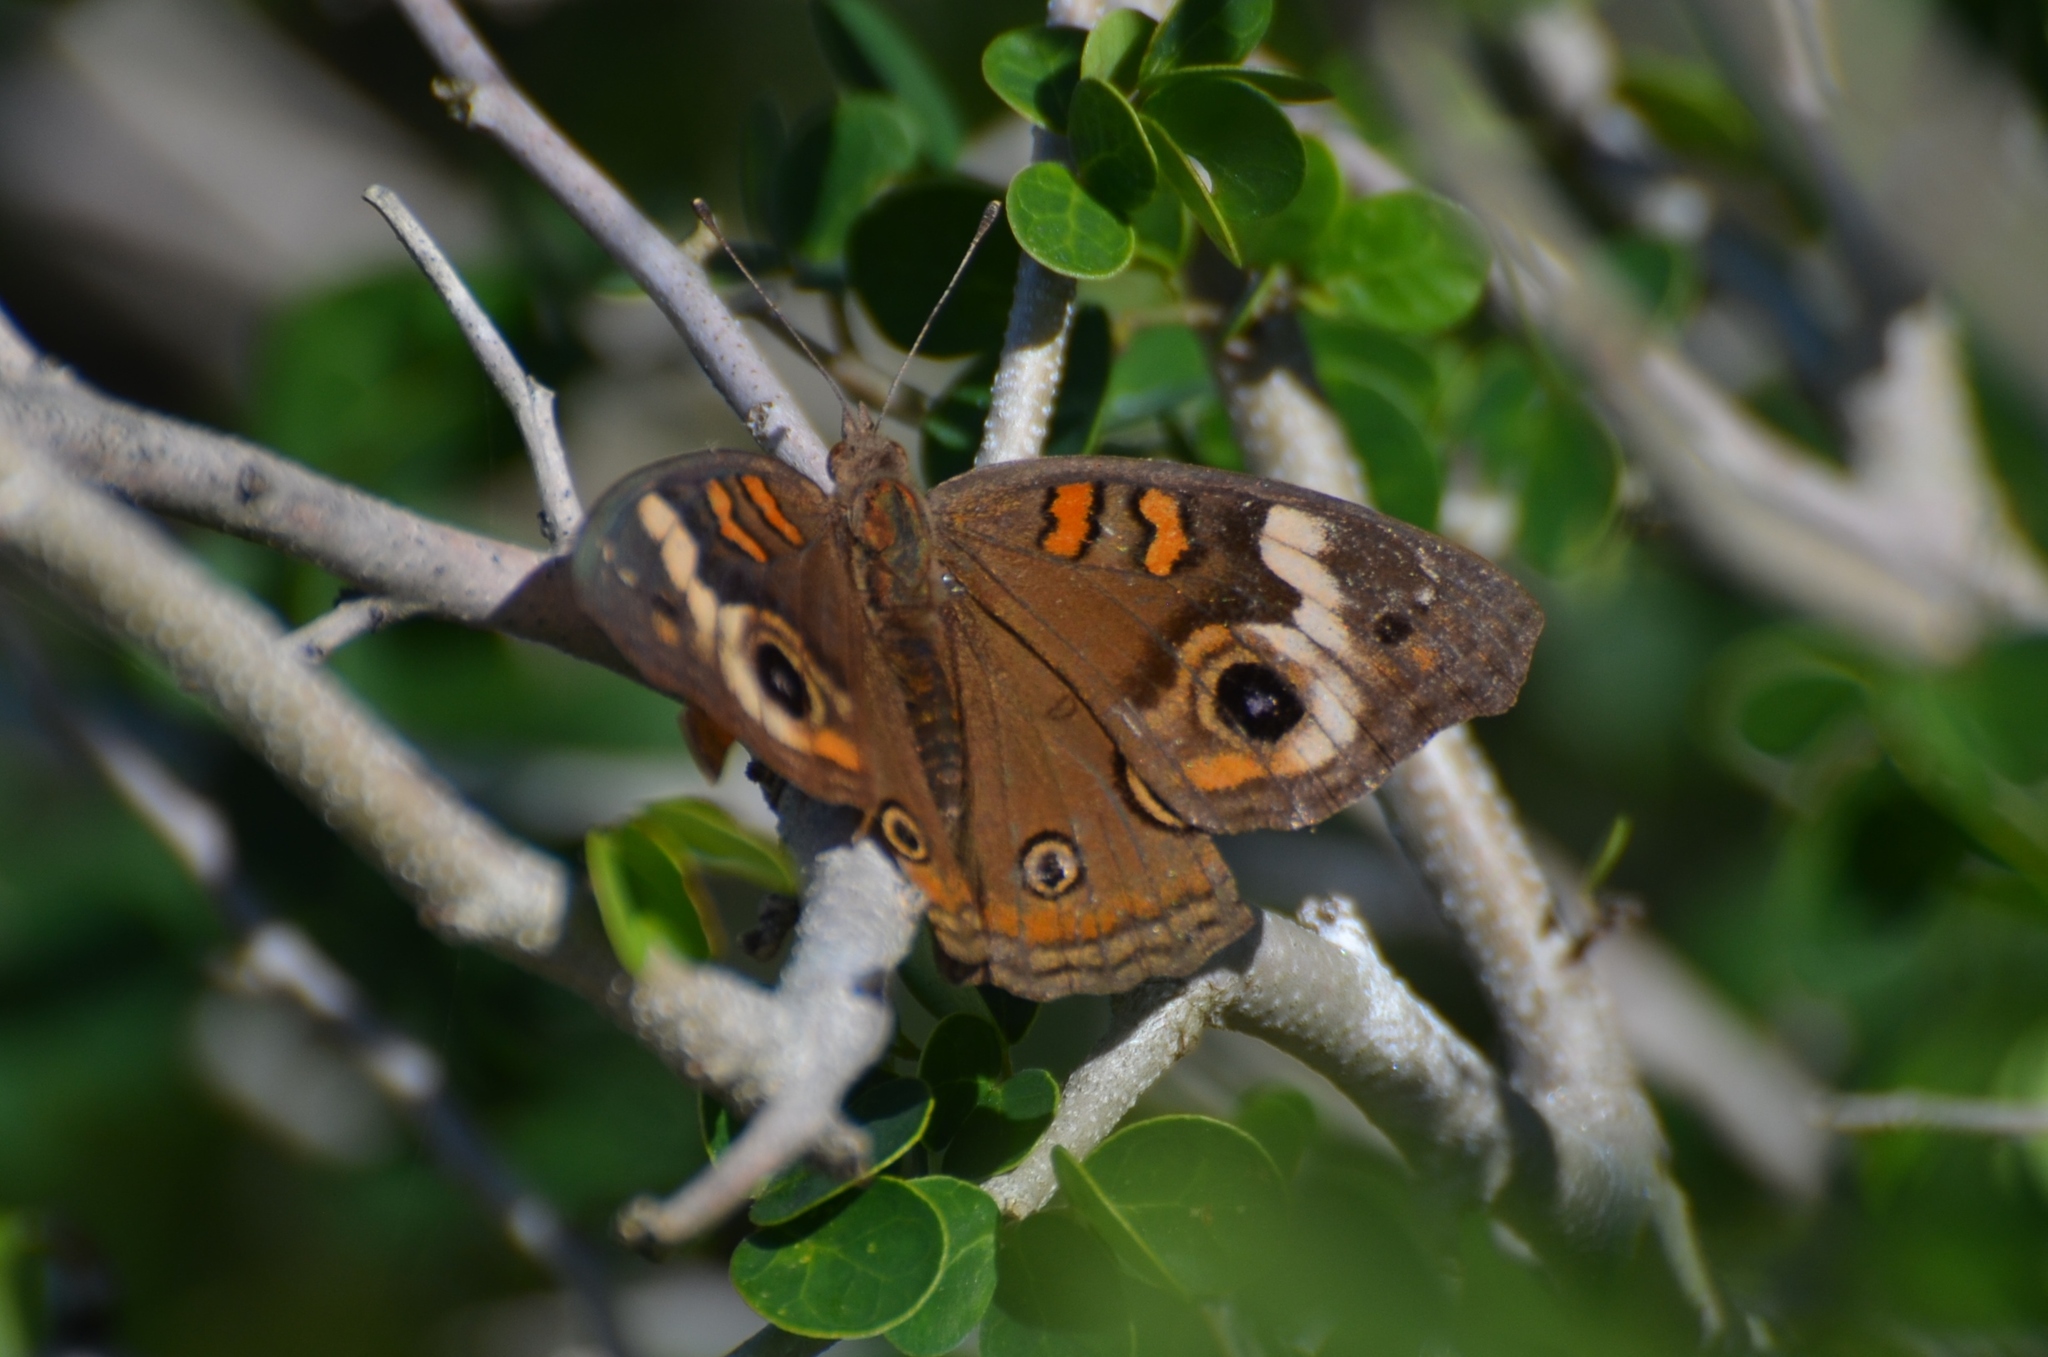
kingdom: Animalia
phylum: Arthropoda
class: Insecta
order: Lepidoptera
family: Nymphalidae
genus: Junonia
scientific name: Junonia coenia
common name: Common buckeye
